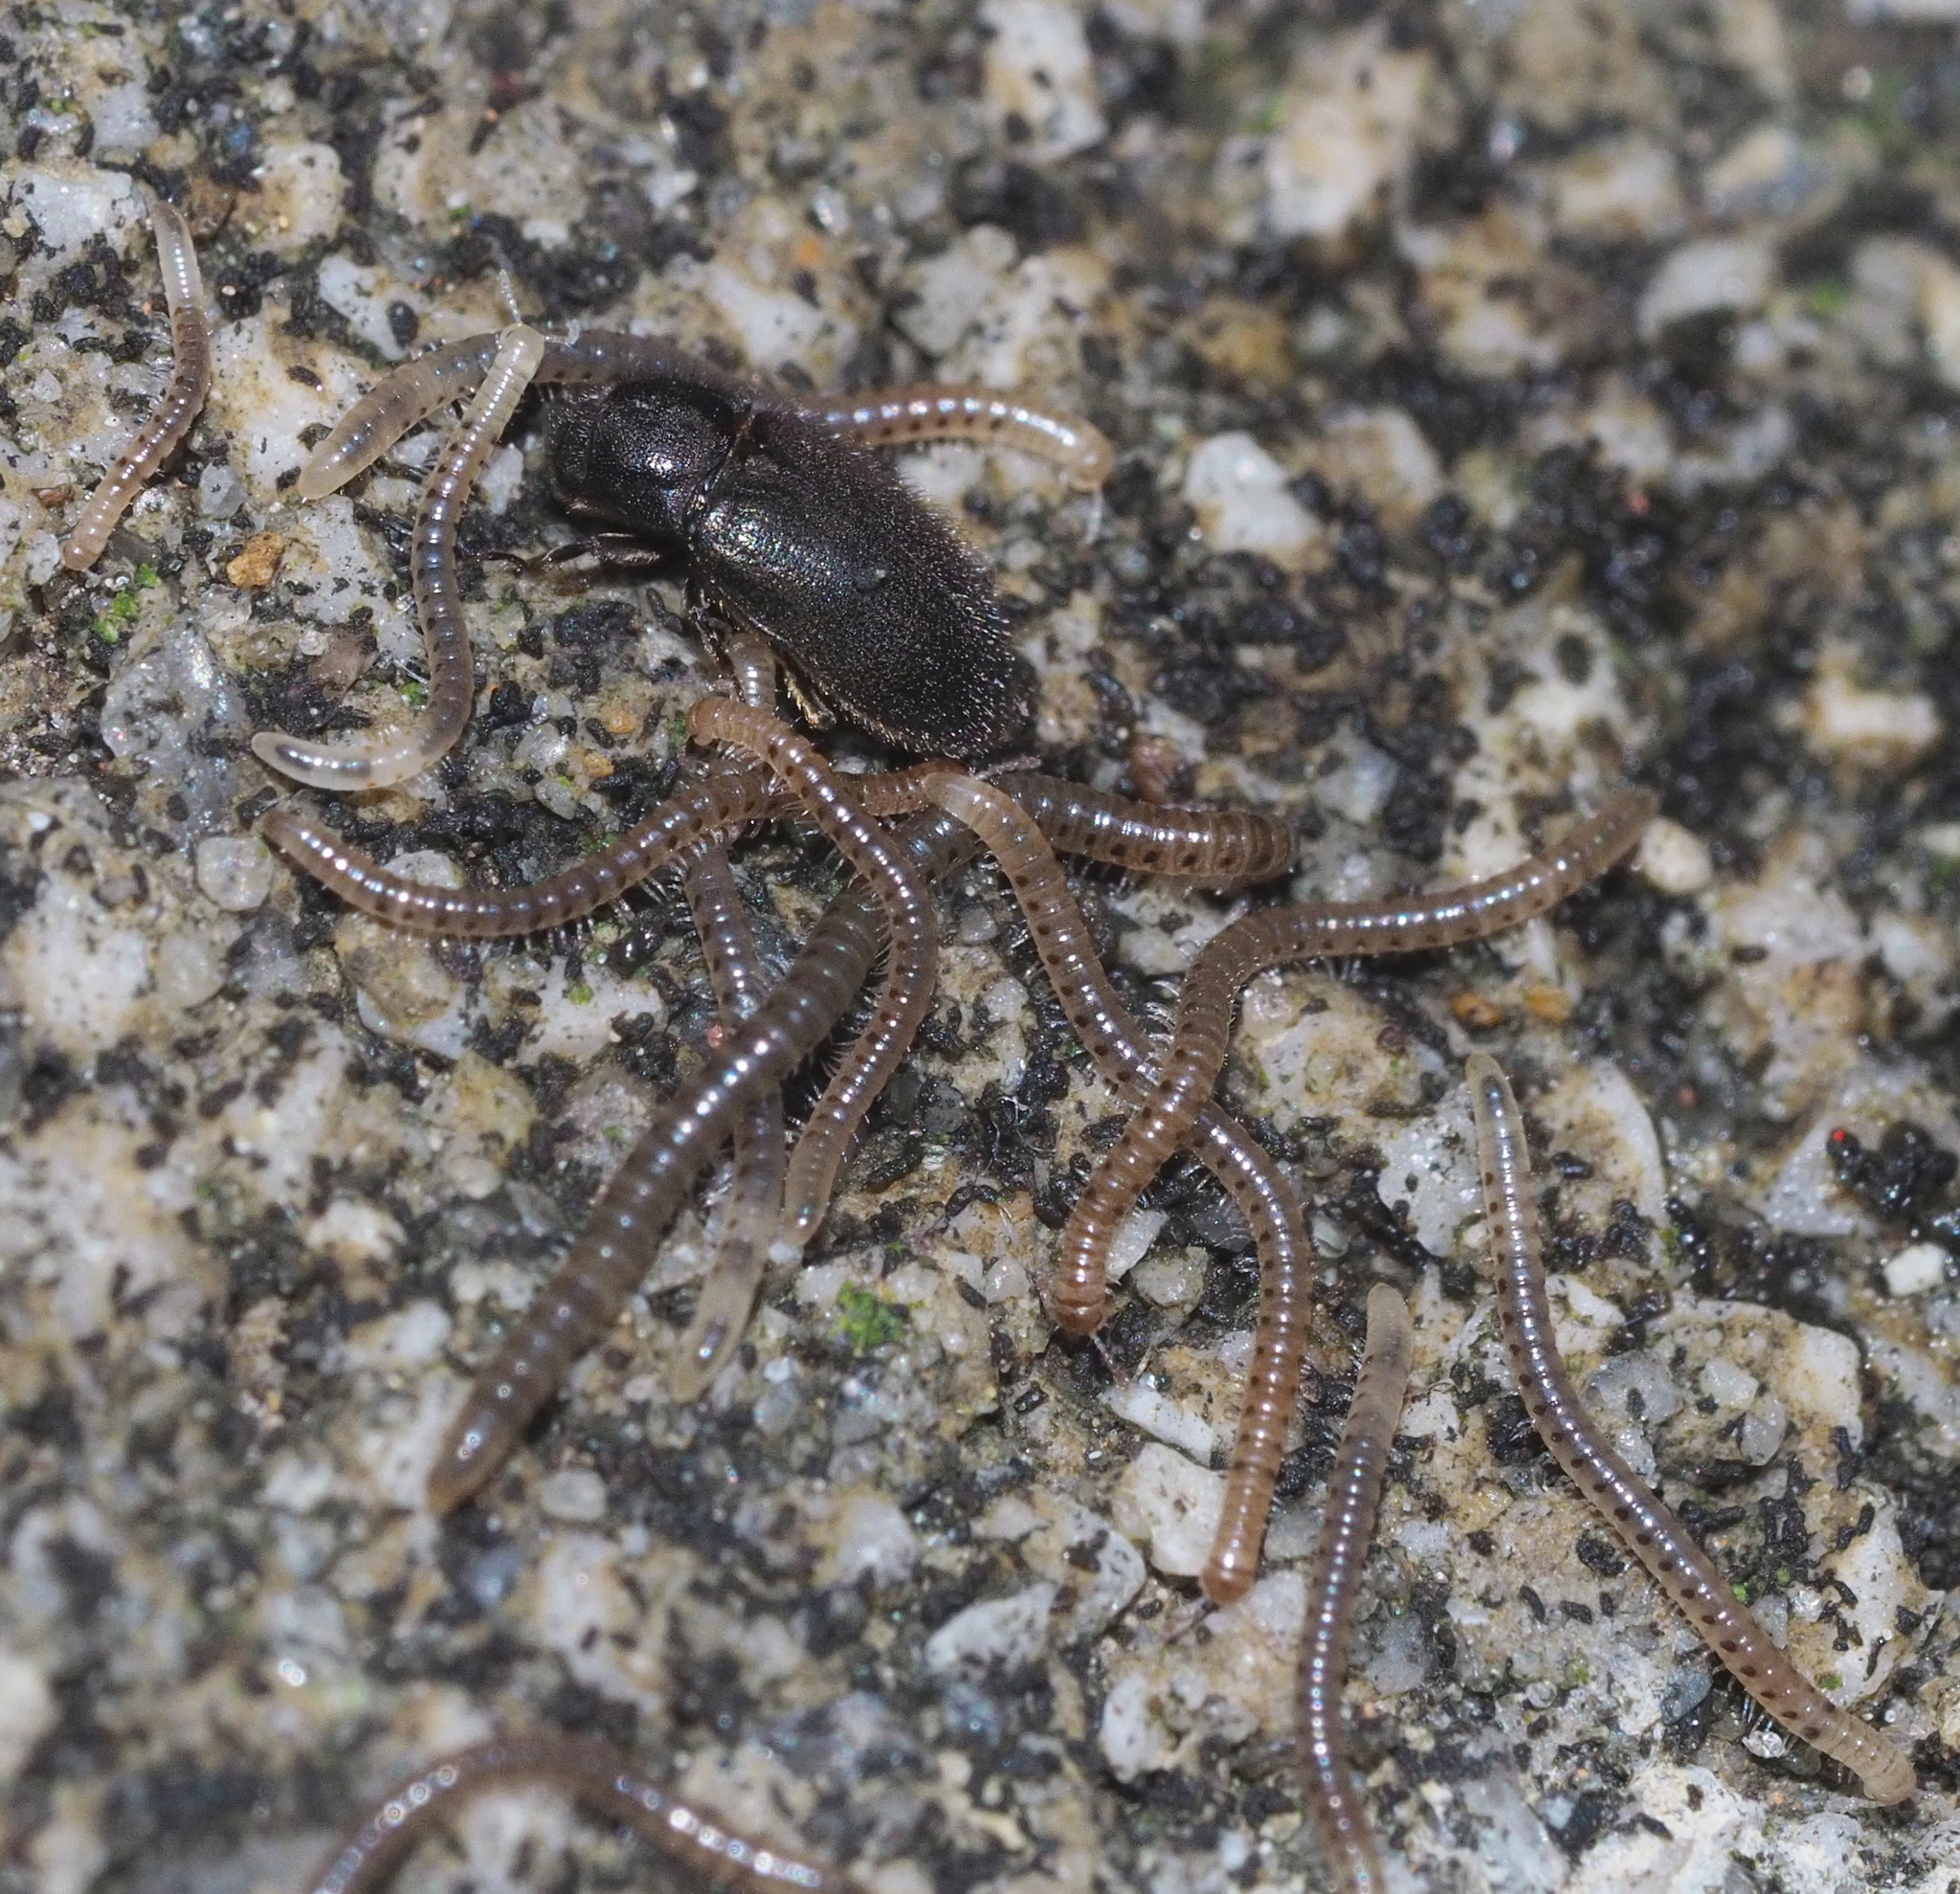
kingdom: Animalia
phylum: Arthropoda
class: Insecta
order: Coleoptera
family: Dryopidae
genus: Dryops
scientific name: Dryops
